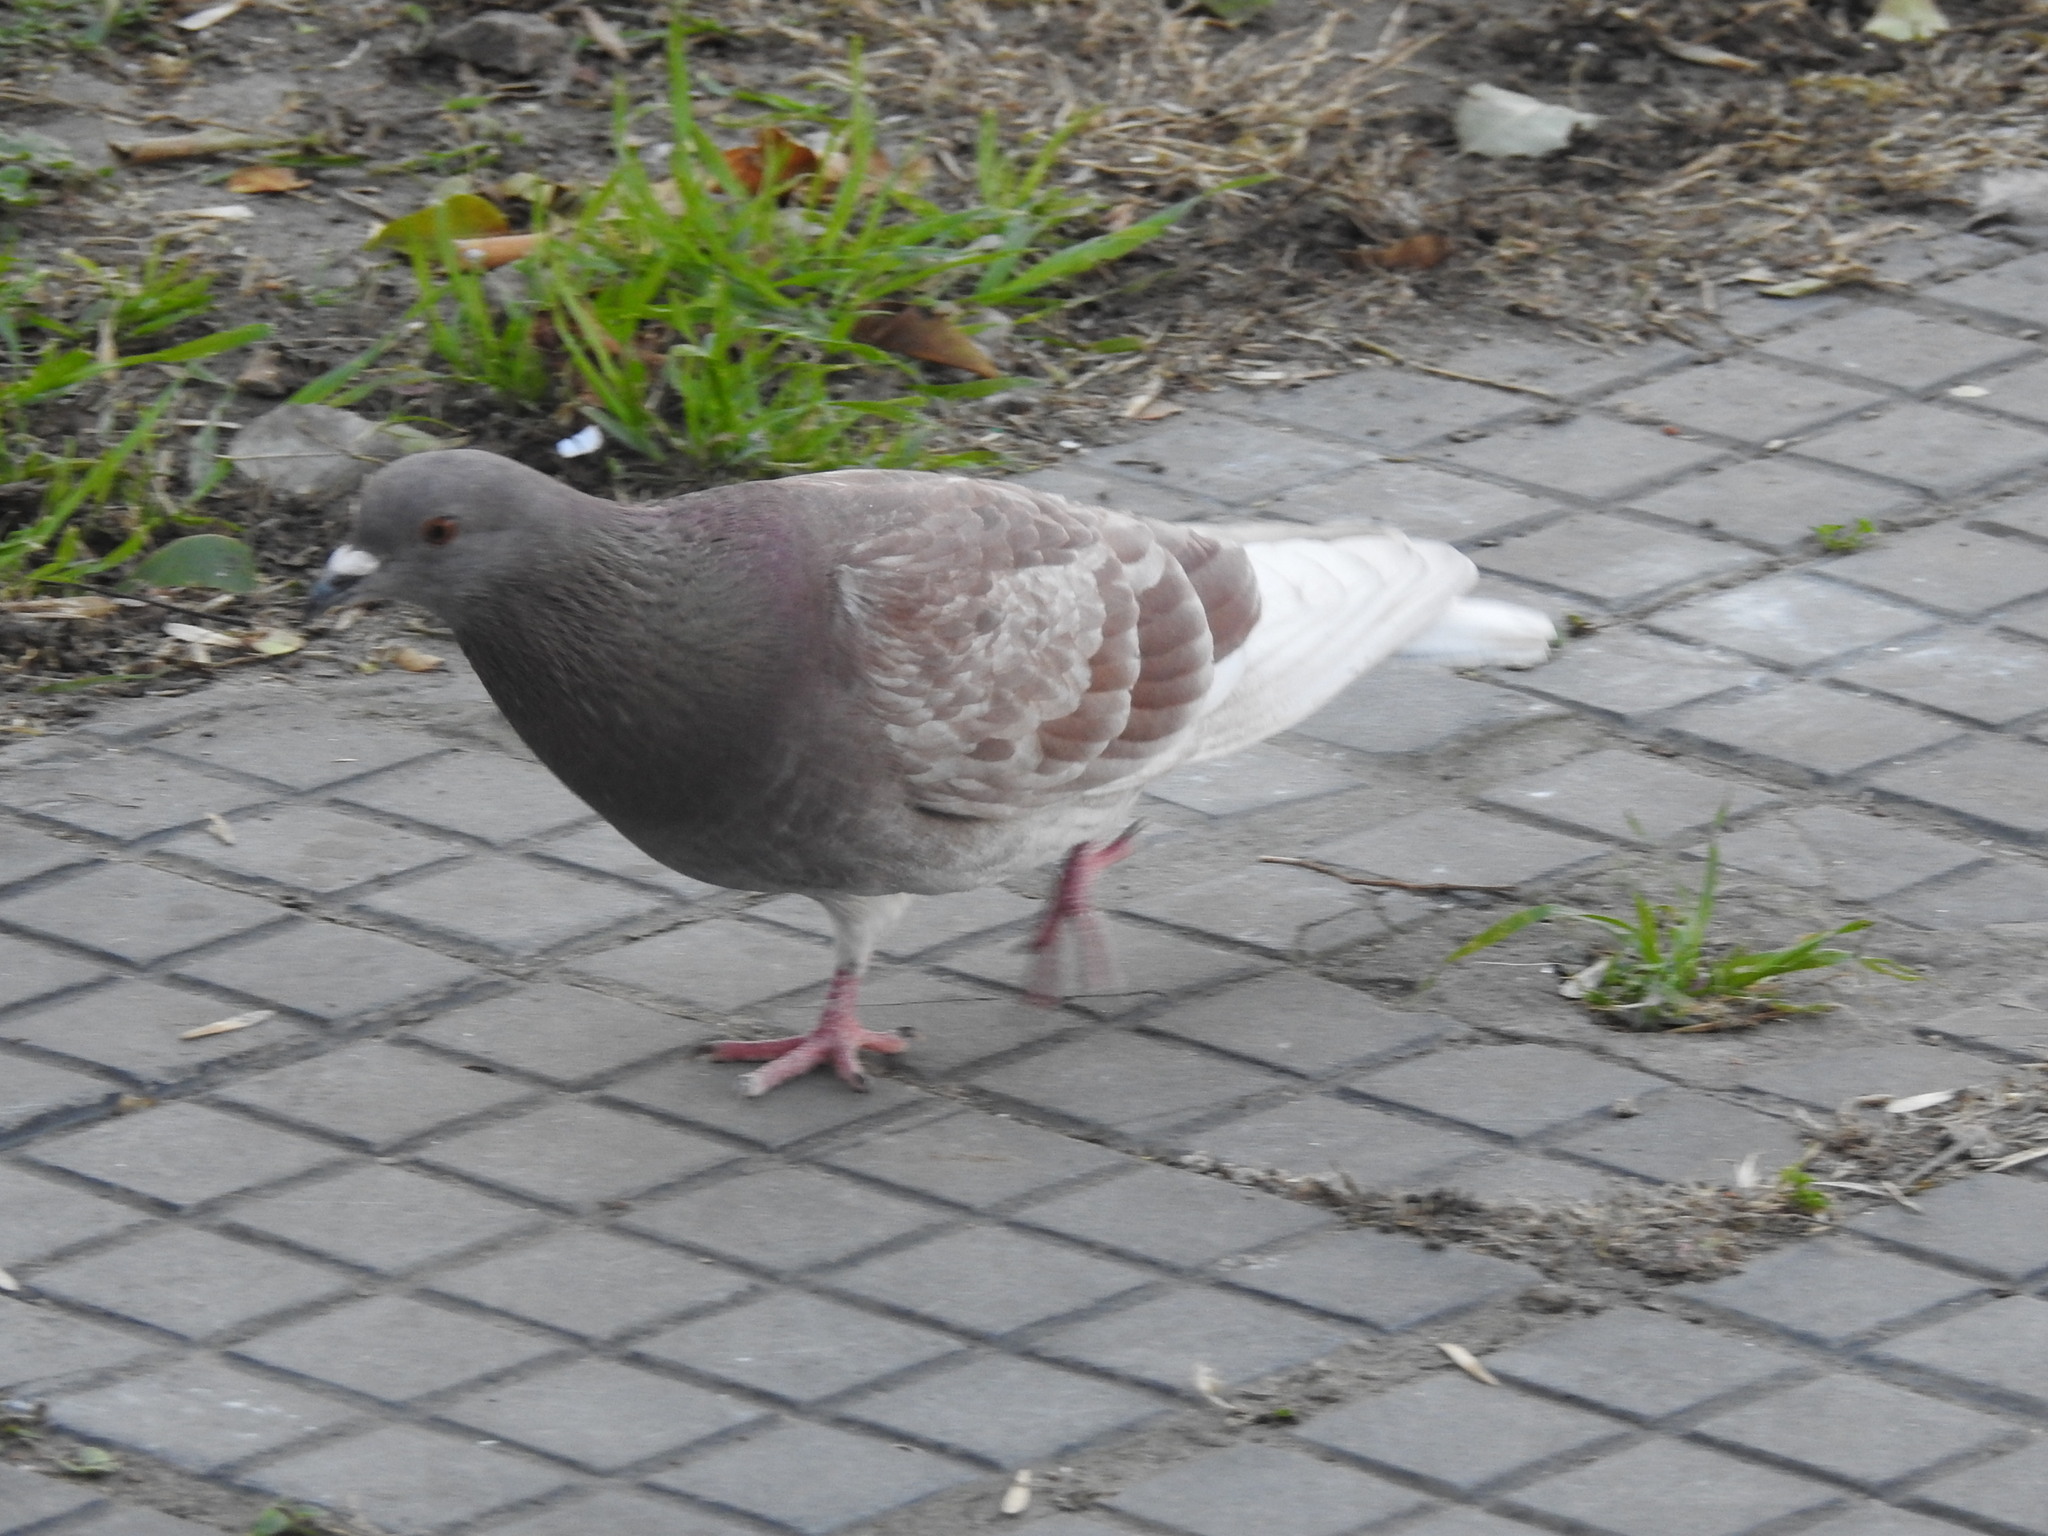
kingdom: Animalia
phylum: Chordata
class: Aves
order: Columbiformes
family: Columbidae
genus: Columba
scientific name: Columba livia
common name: Rock pigeon
